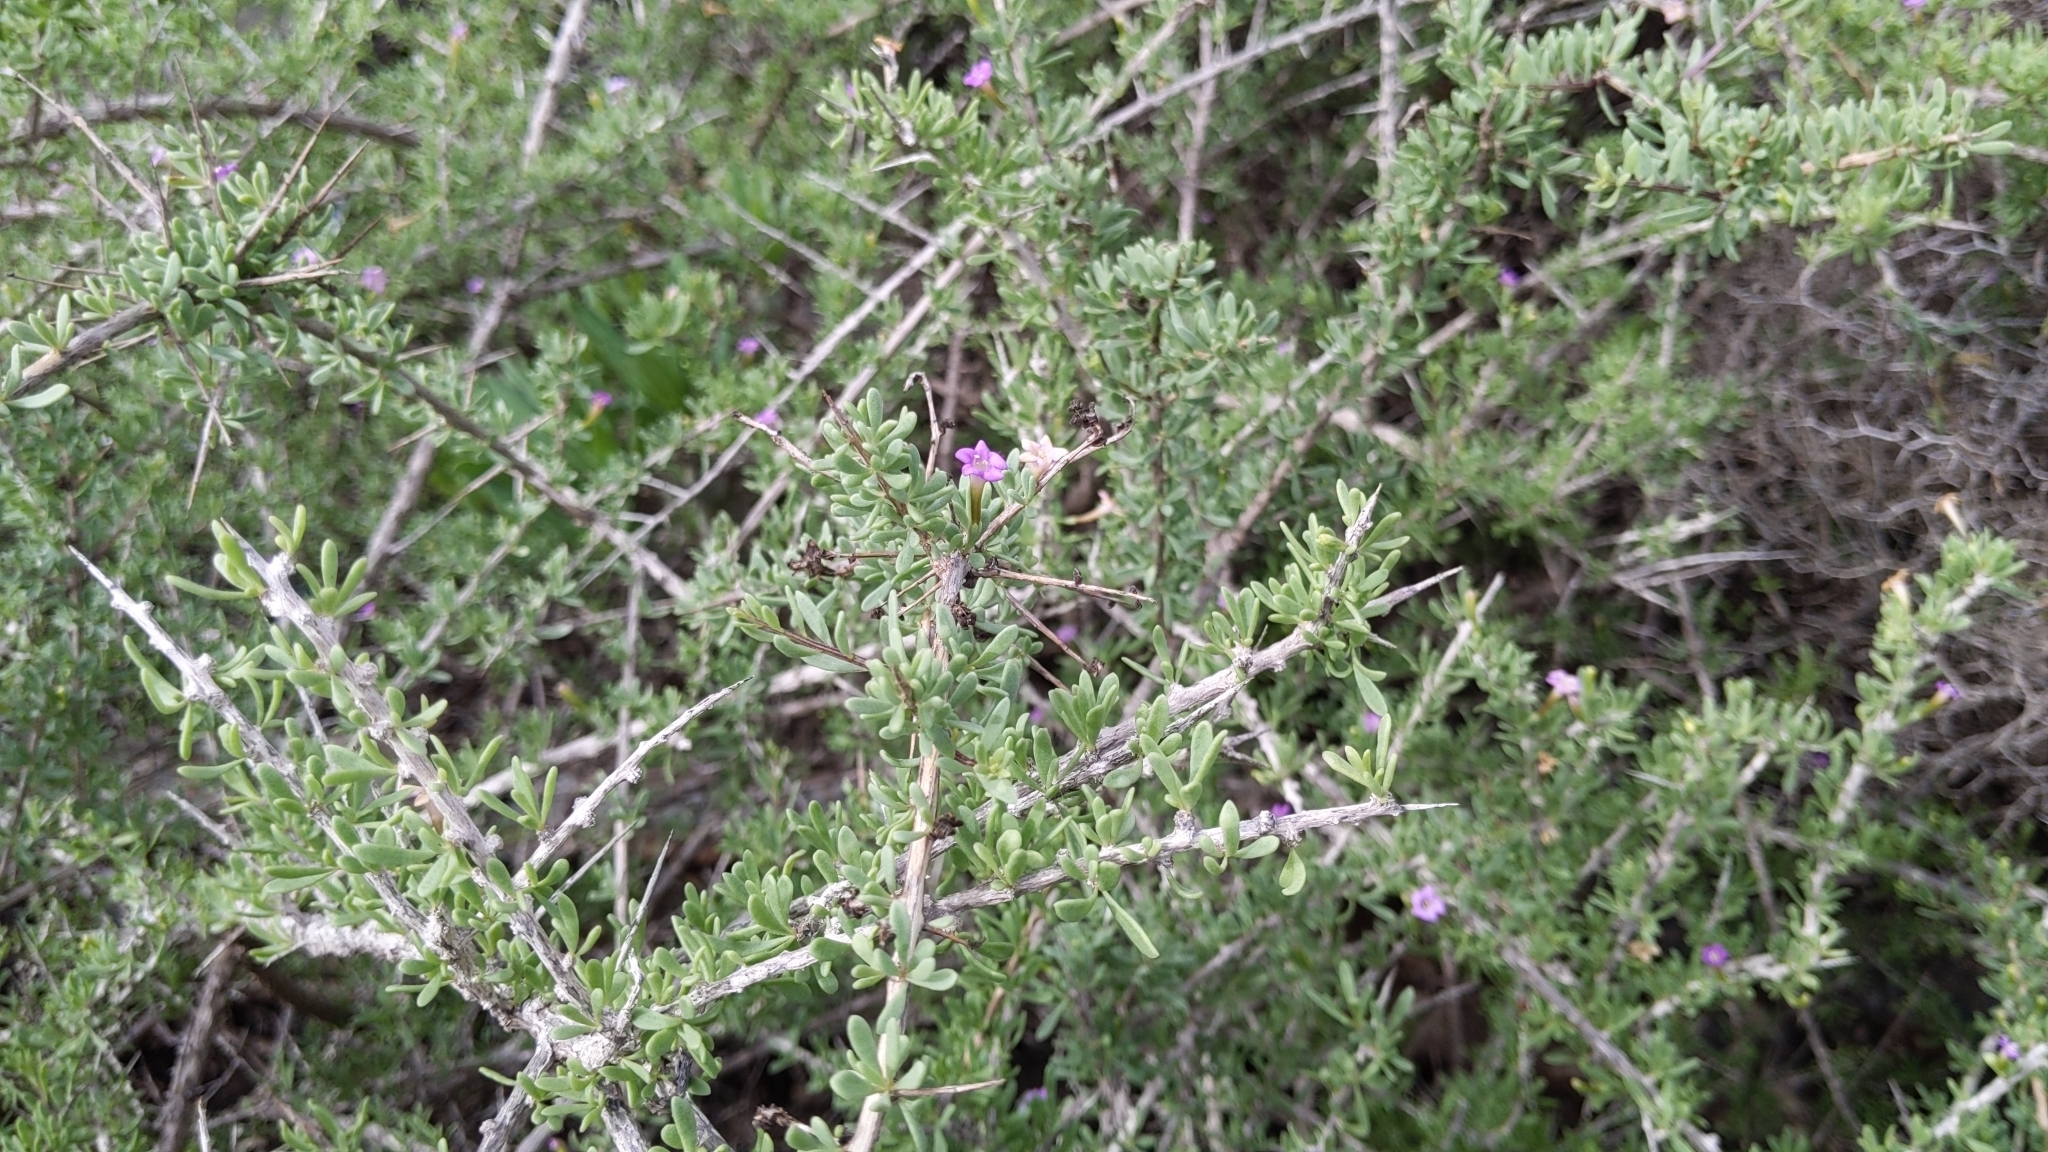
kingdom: Plantae
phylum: Tracheophyta
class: Magnoliopsida
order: Solanales
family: Solanaceae
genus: Lycium
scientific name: Lycium intricatum
